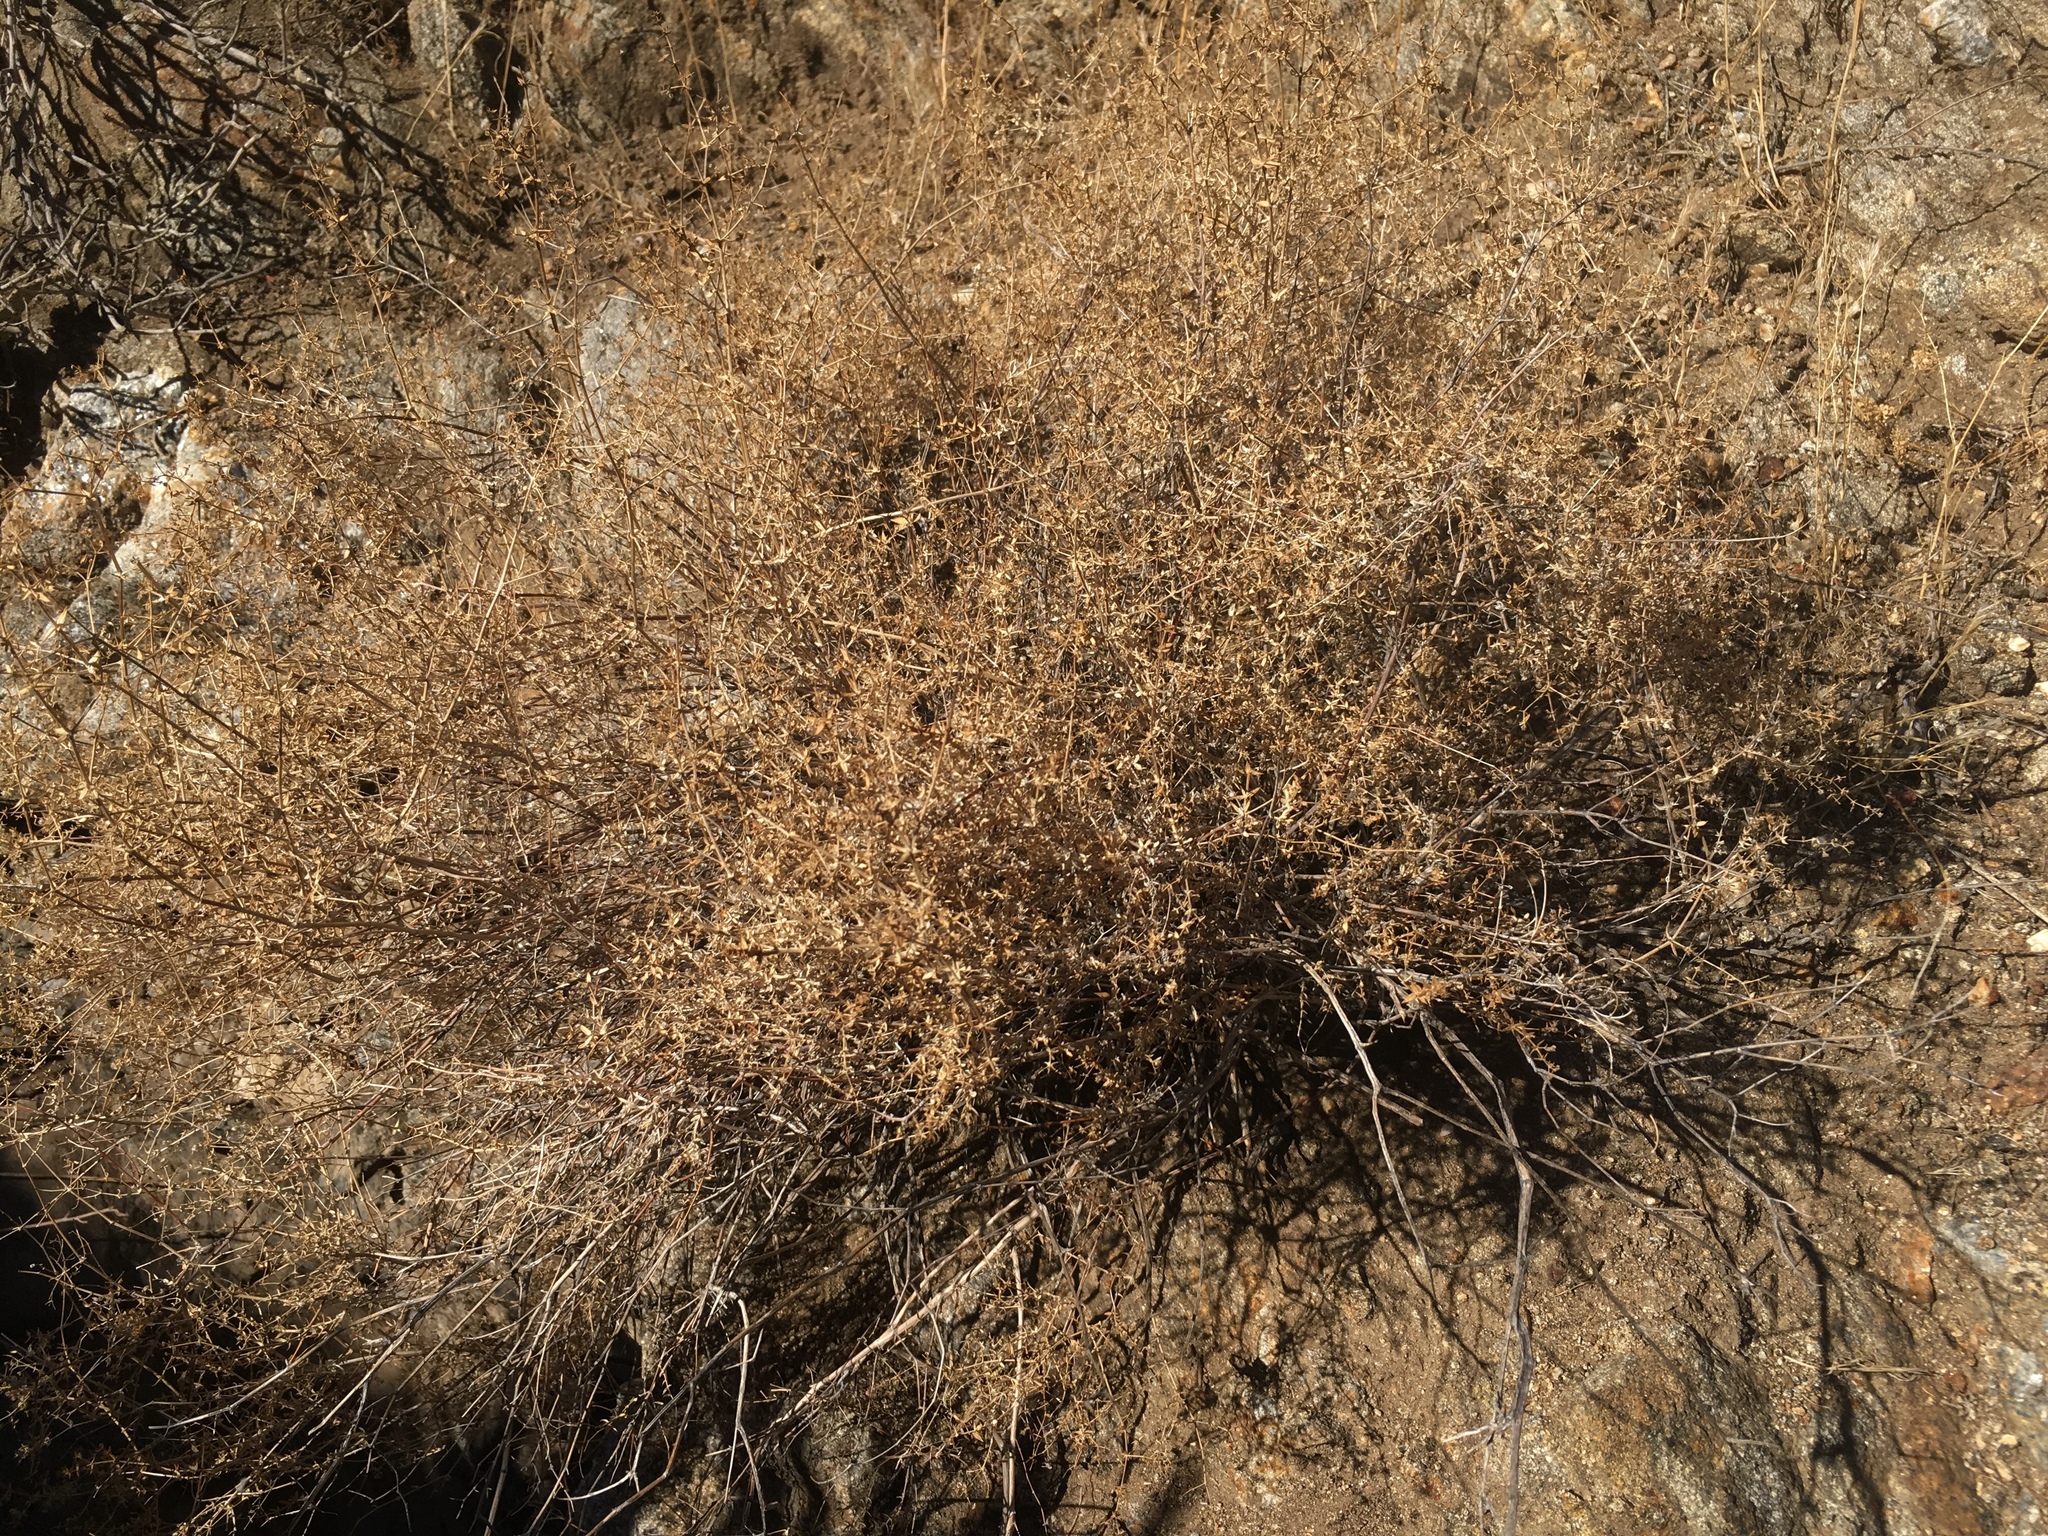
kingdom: Plantae
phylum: Tracheophyta
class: Magnoliopsida
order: Gentianales
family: Rubiaceae
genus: Galium
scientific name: Galium stellatum
